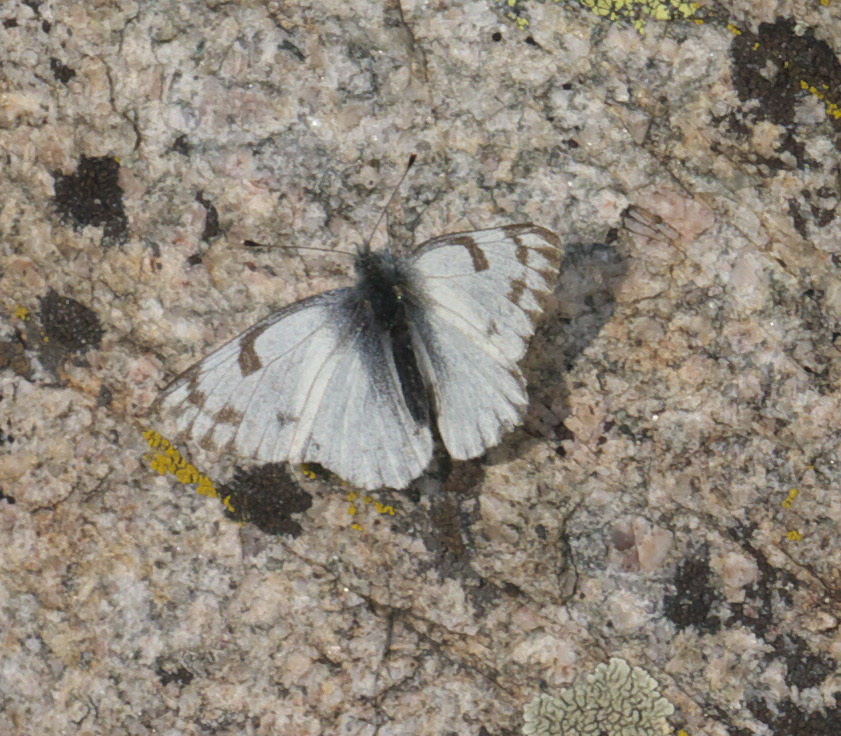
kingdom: Animalia
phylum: Arthropoda
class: Insecta
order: Lepidoptera
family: Pieridae
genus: Pontia
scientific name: Pontia occidentalis
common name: Western white
